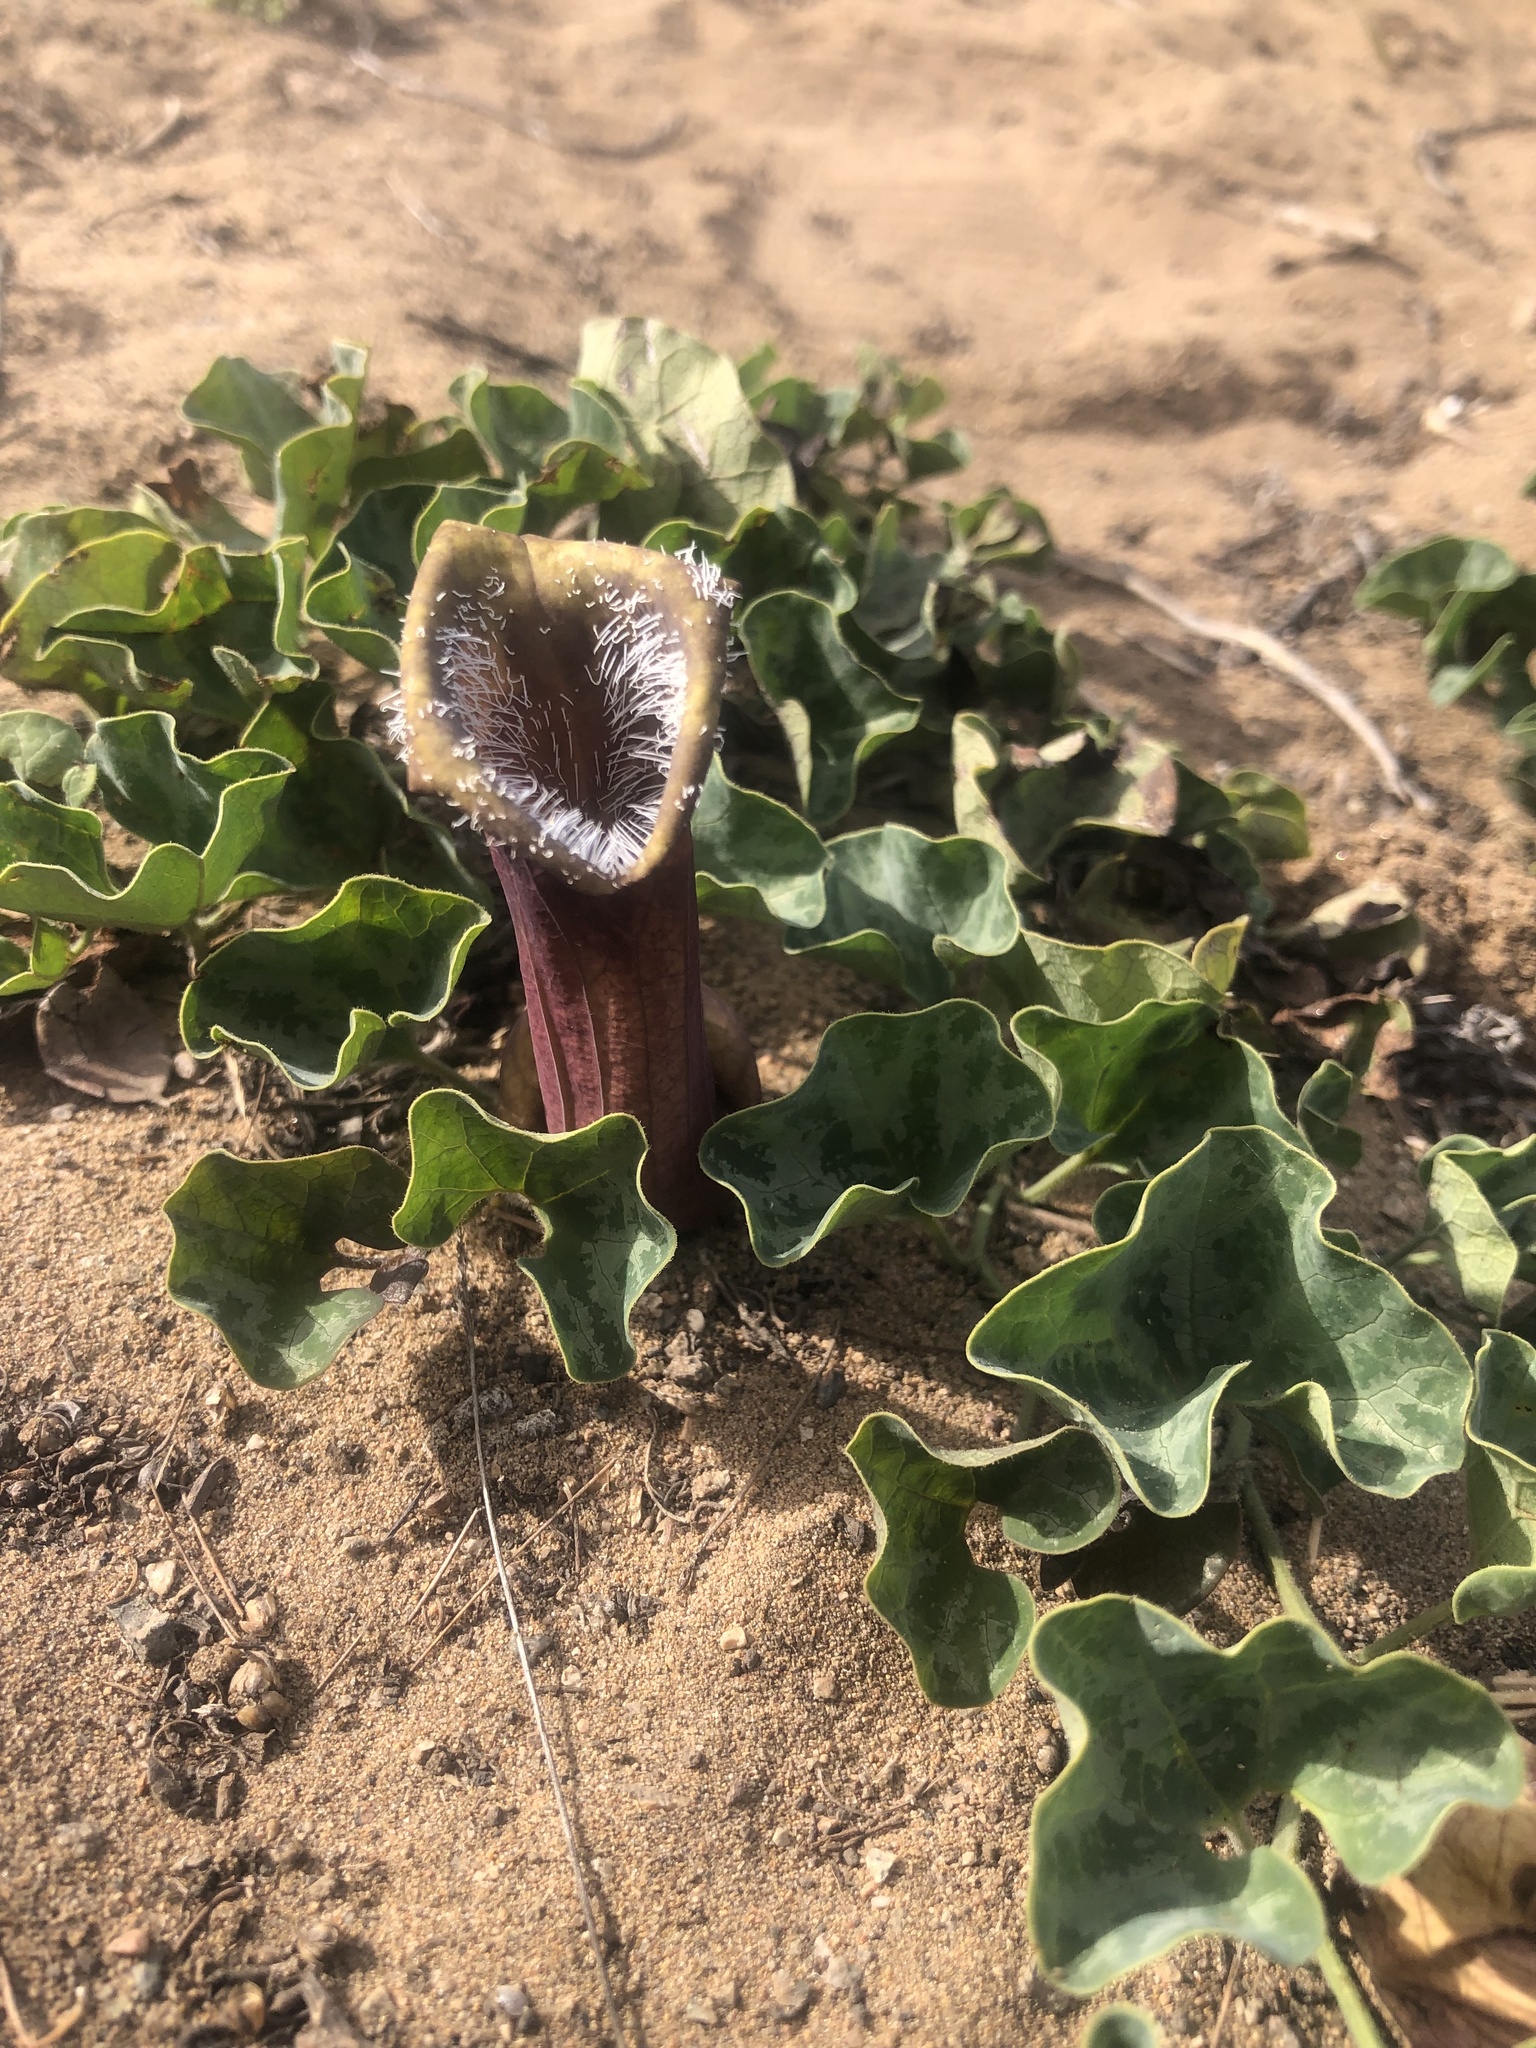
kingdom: Plantae
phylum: Tracheophyta
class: Magnoliopsida
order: Piperales
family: Aristolochiaceae
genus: Aristolochia
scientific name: Aristolochia chilensis
